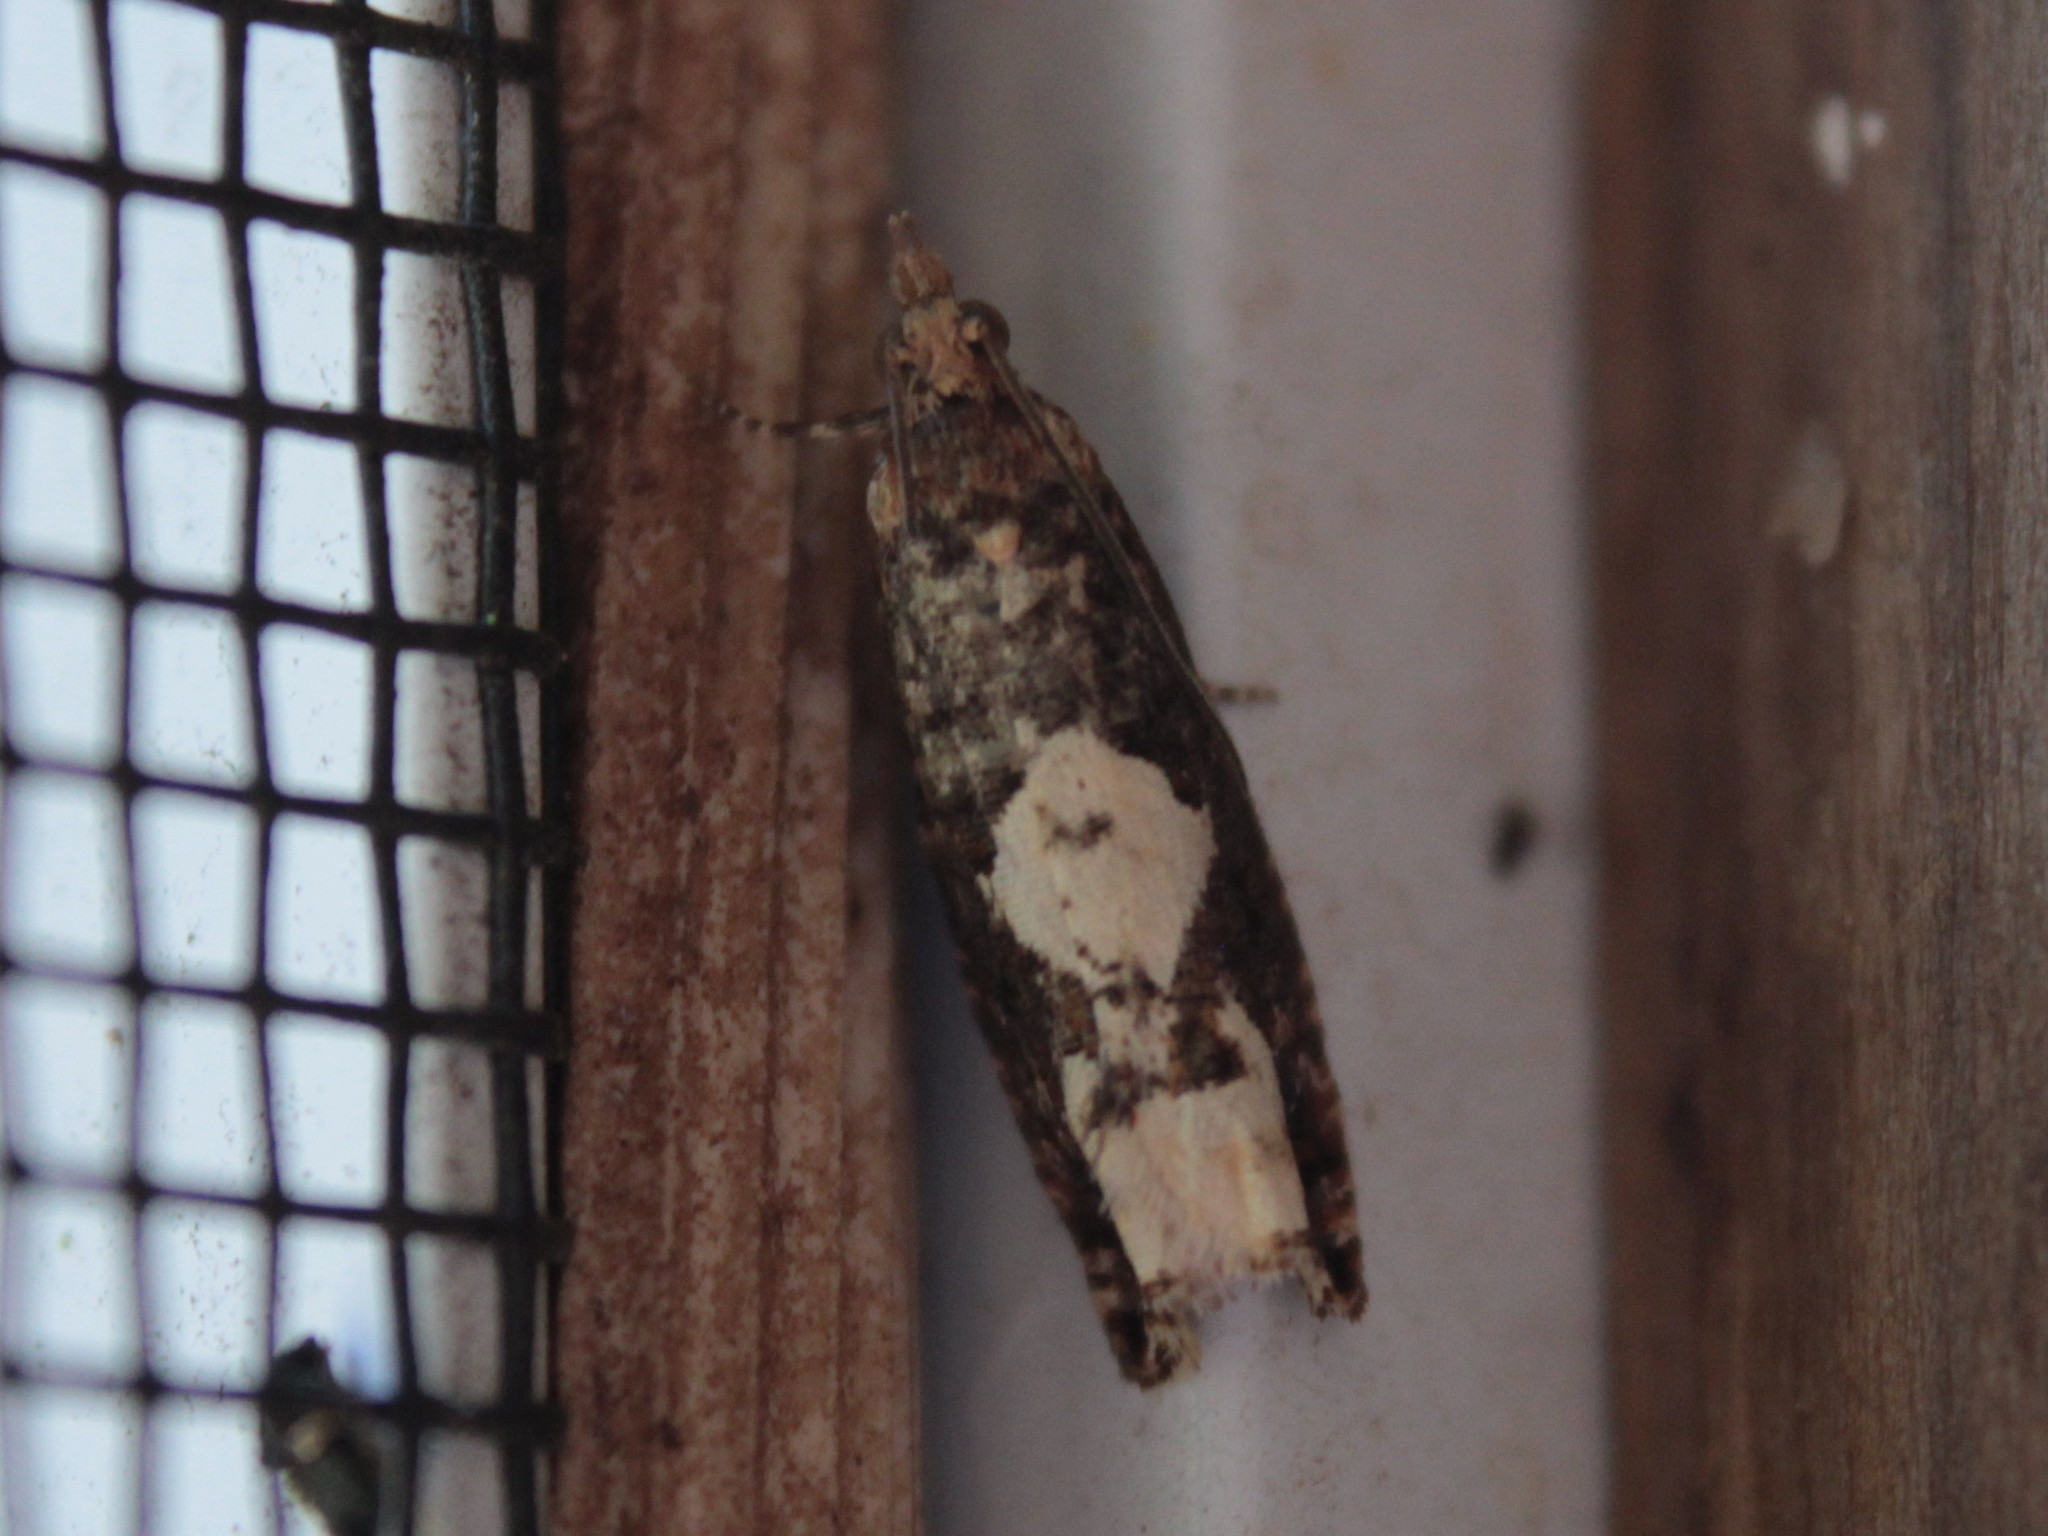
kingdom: Animalia
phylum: Arthropoda
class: Insecta
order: Lepidoptera
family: Tortricidae
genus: Epinotia
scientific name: Epinotia trigonella
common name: White-blotch bell
